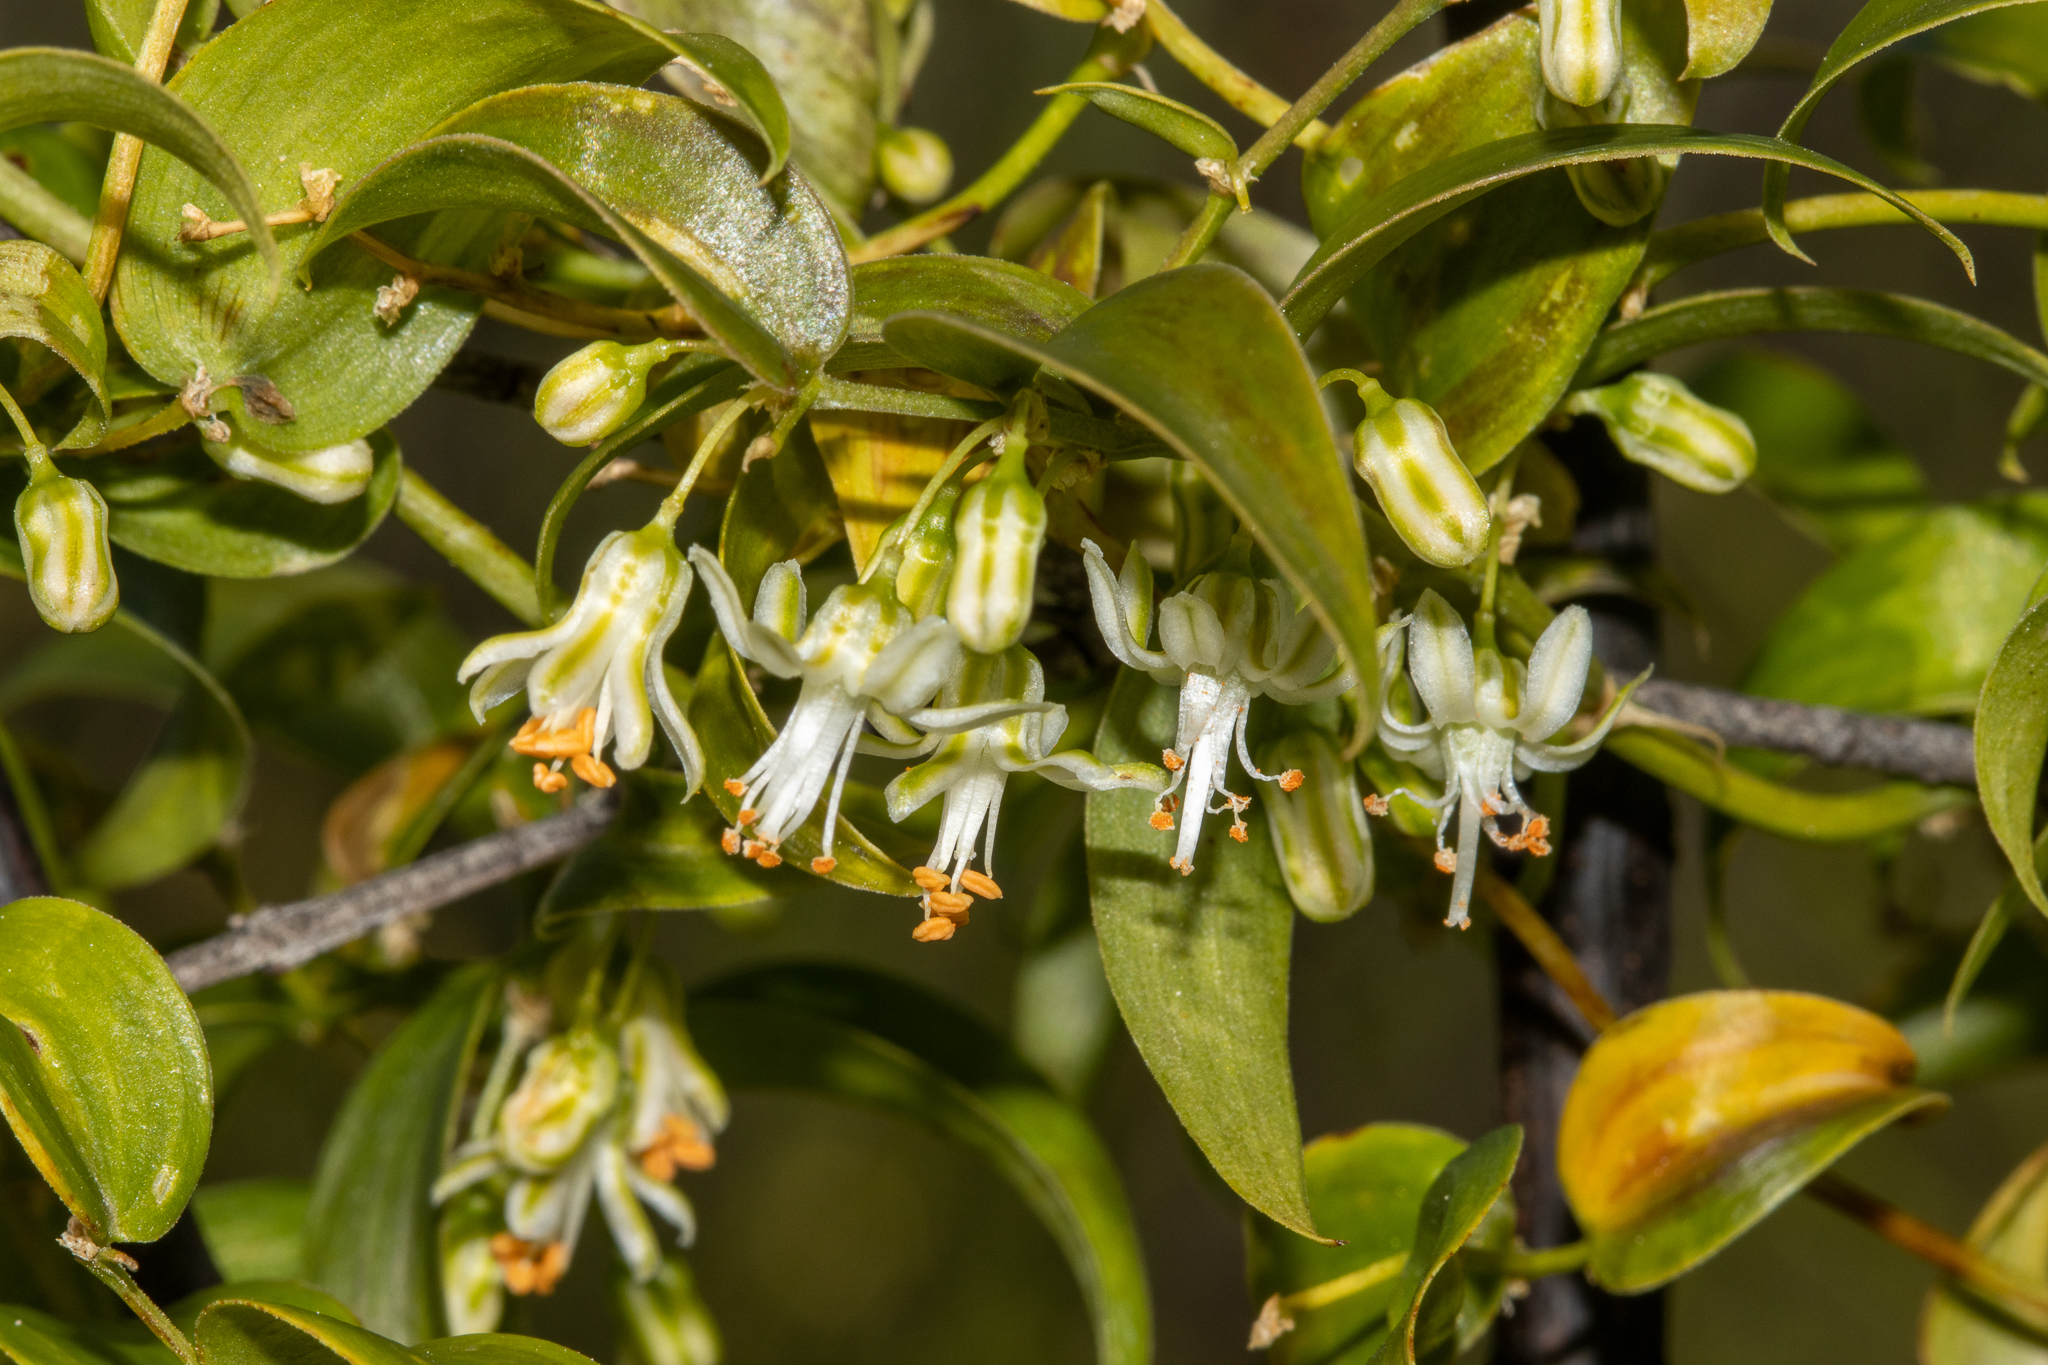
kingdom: Plantae
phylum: Tracheophyta
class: Liliopsida
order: Asparagales
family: Asparagaceae
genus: Asparagus
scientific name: Asparagus asparagoides
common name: African asparagus fern
